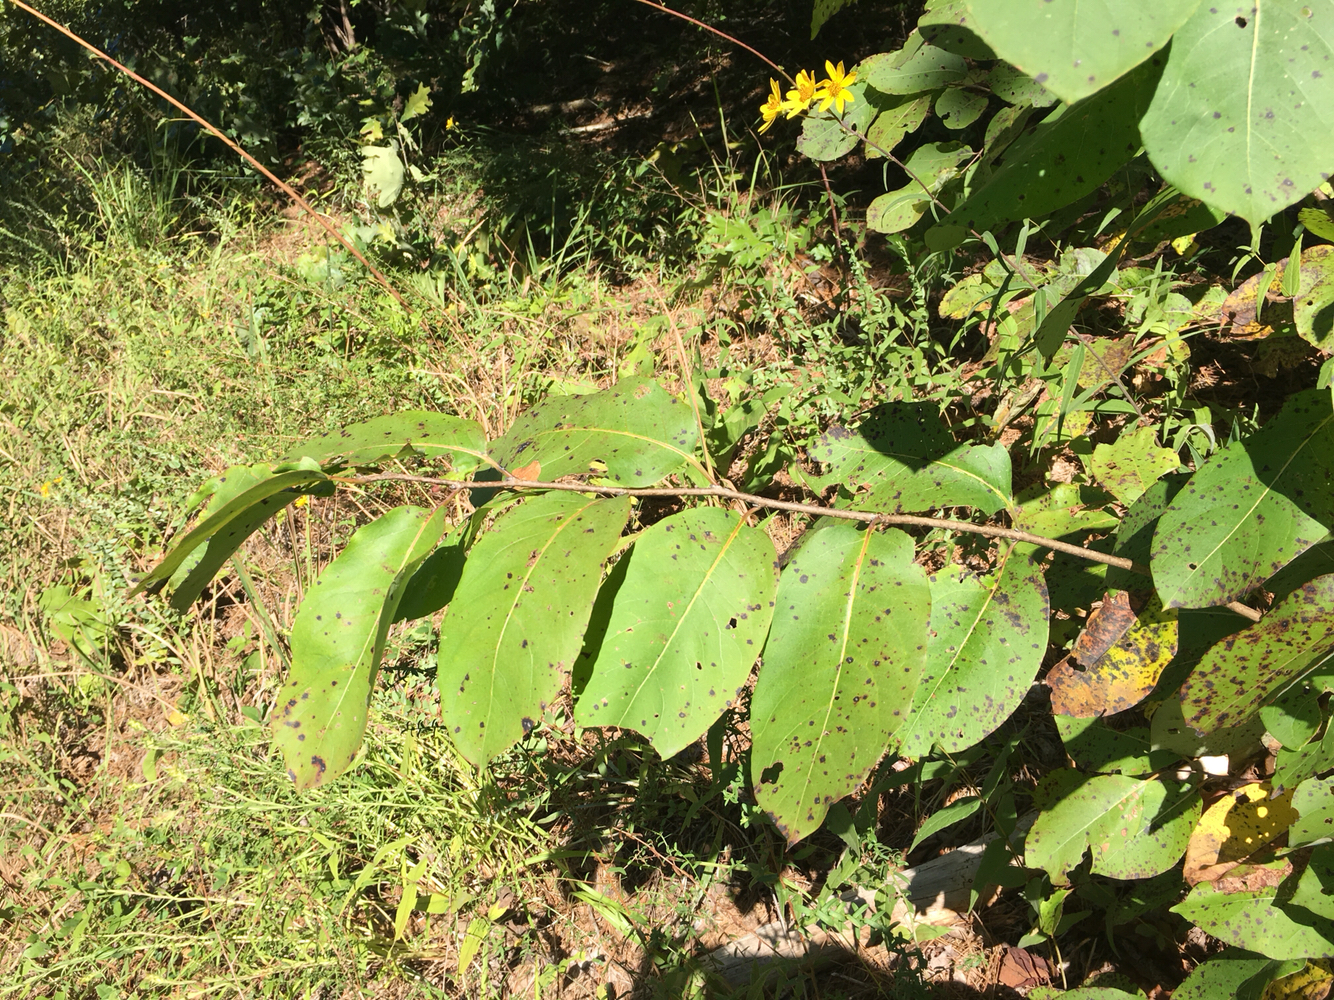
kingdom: Plantae
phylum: Tracheophyta
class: Magnoliopsida
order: Ericales
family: Ebenaceae
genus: Diospyros
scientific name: Diospyros virginiana
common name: Persimmon
